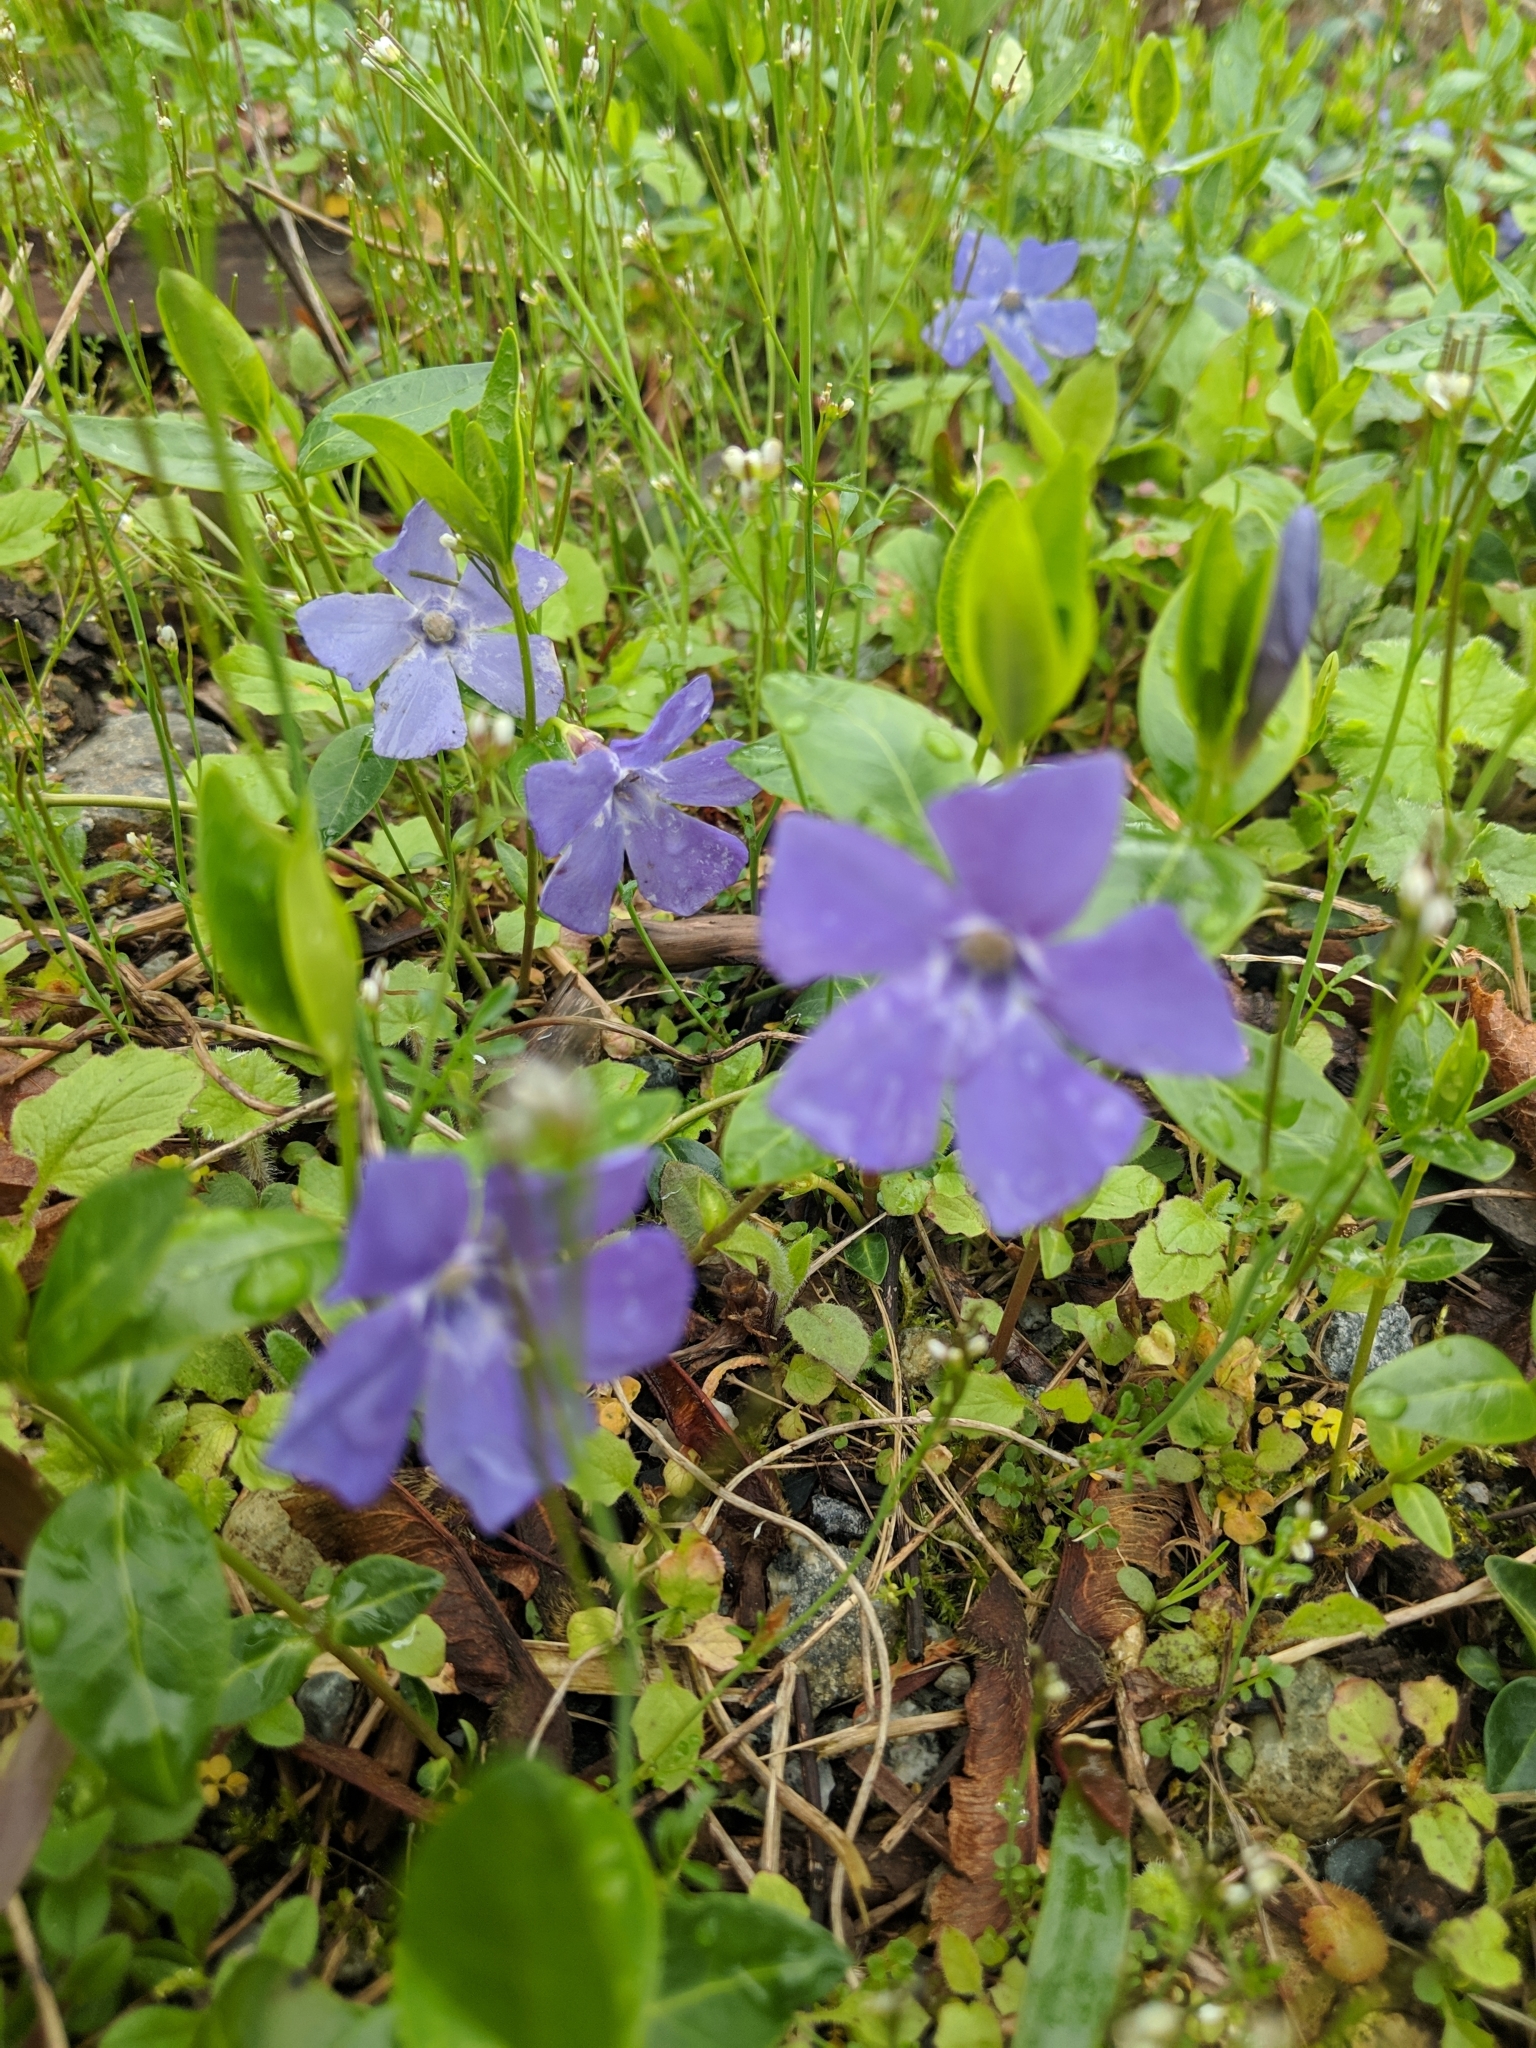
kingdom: Plantae
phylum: Tracheophyta
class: Magnoliopsida
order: Gentianales
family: Apocynaceae
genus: Vinca
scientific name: Vinca minor
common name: Lesser periwinkle
